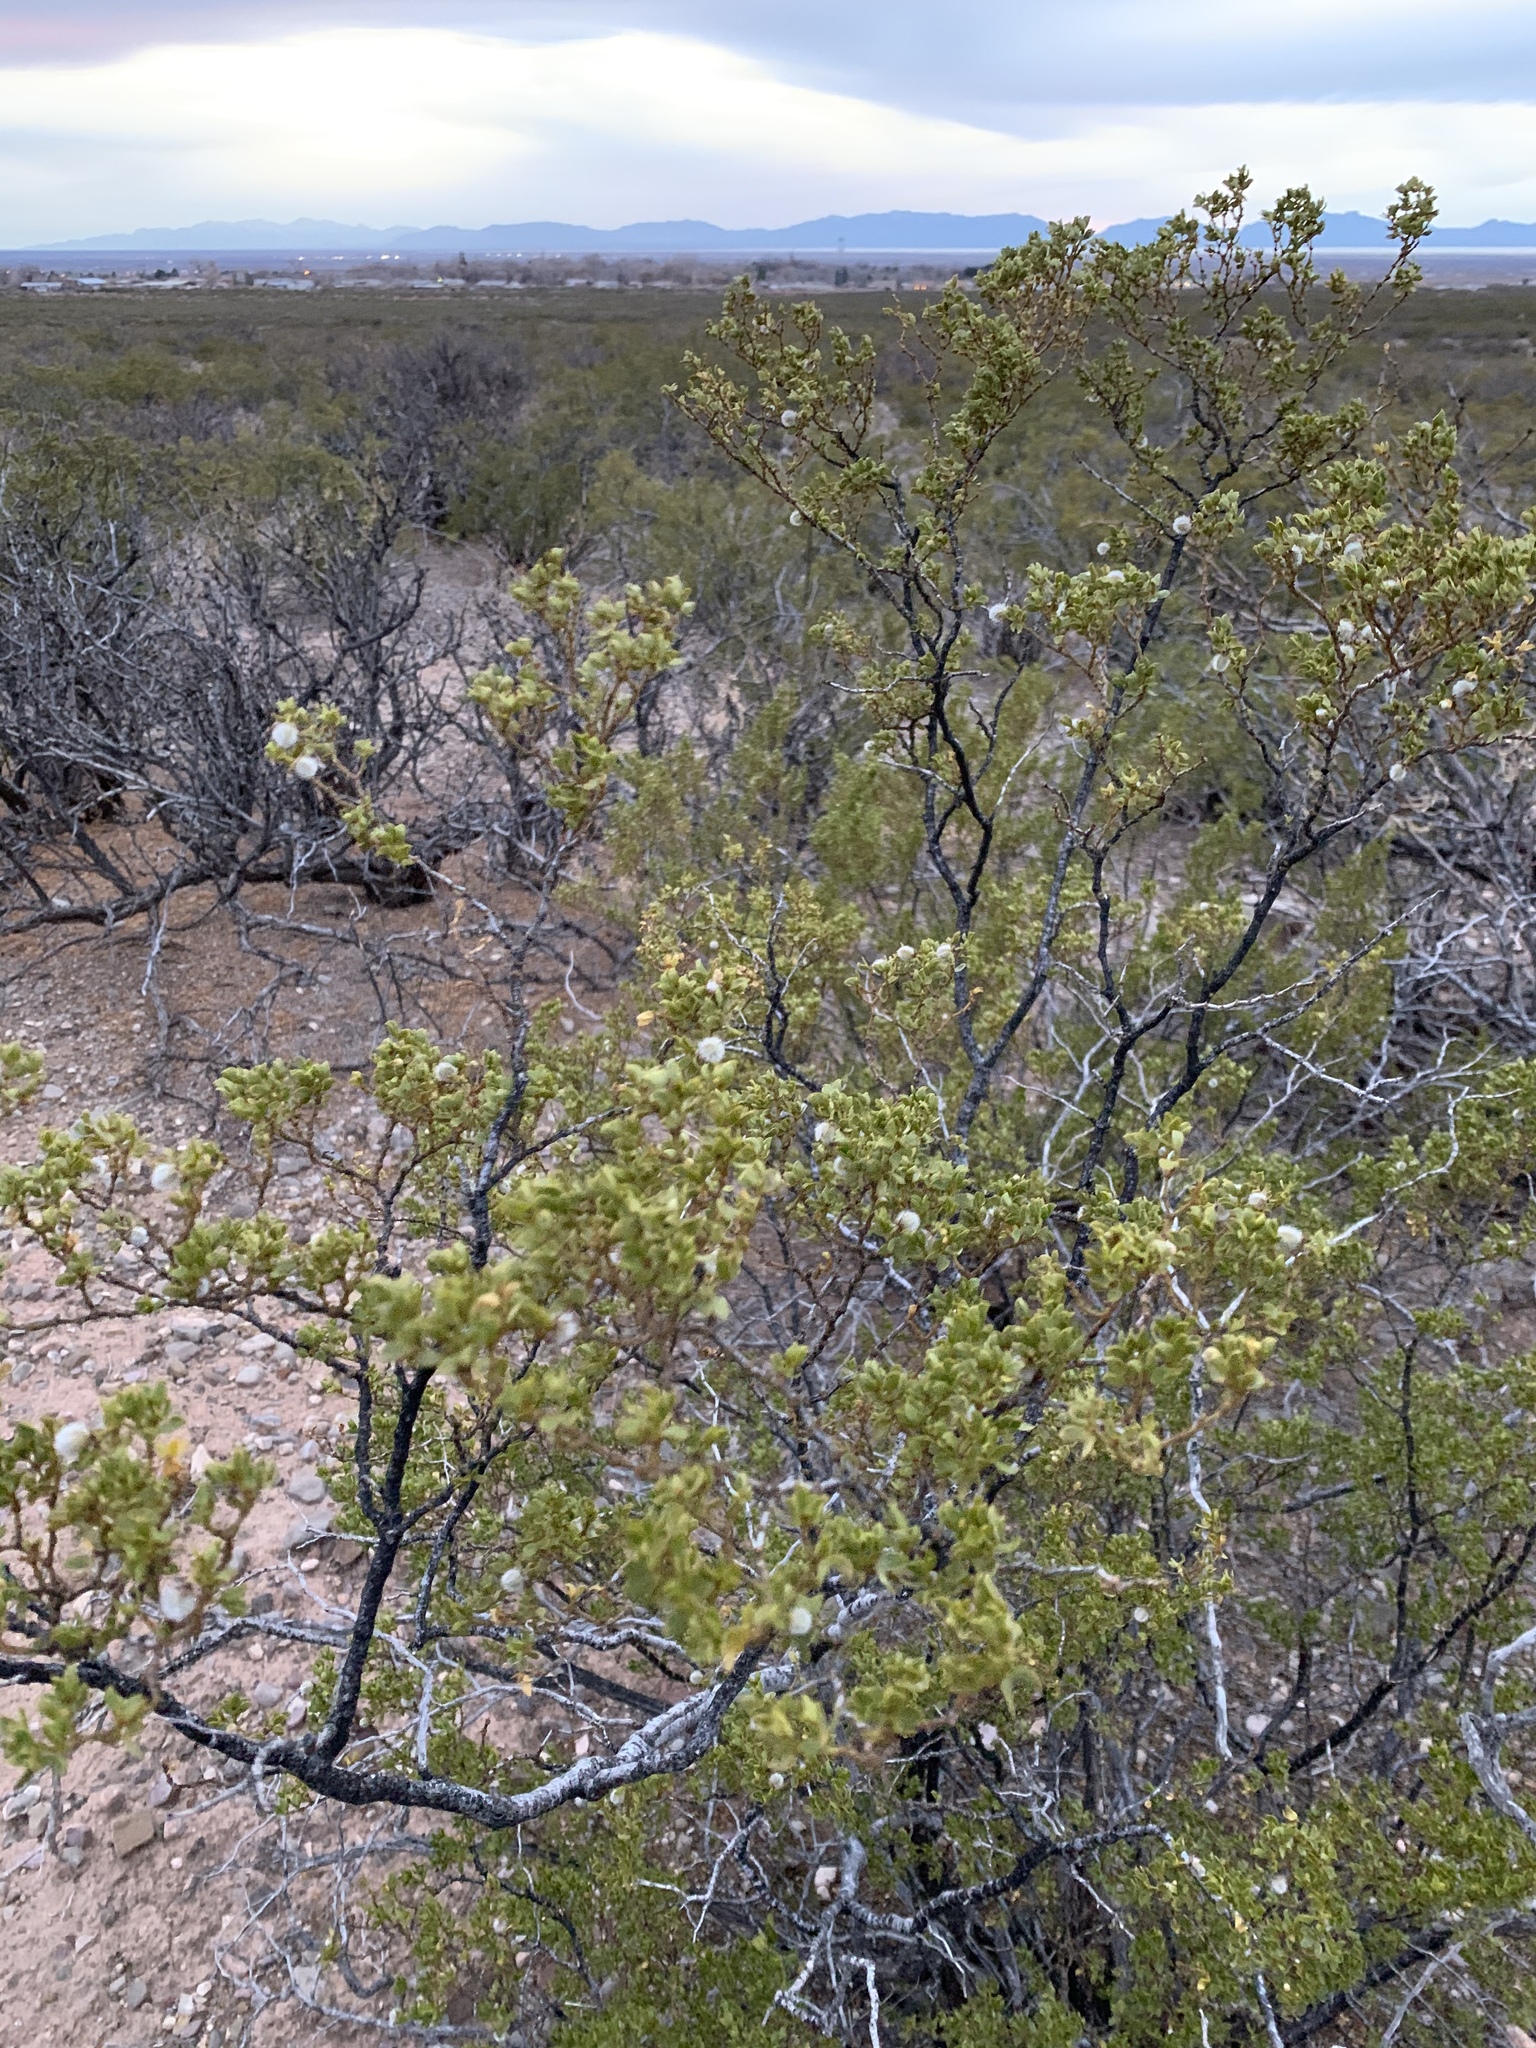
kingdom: Plantae
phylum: Tracheophyta
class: Magnoliopsida
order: Zygophyllales
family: Zygophyllaceae
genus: Larrea
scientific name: Larrea tridentata
